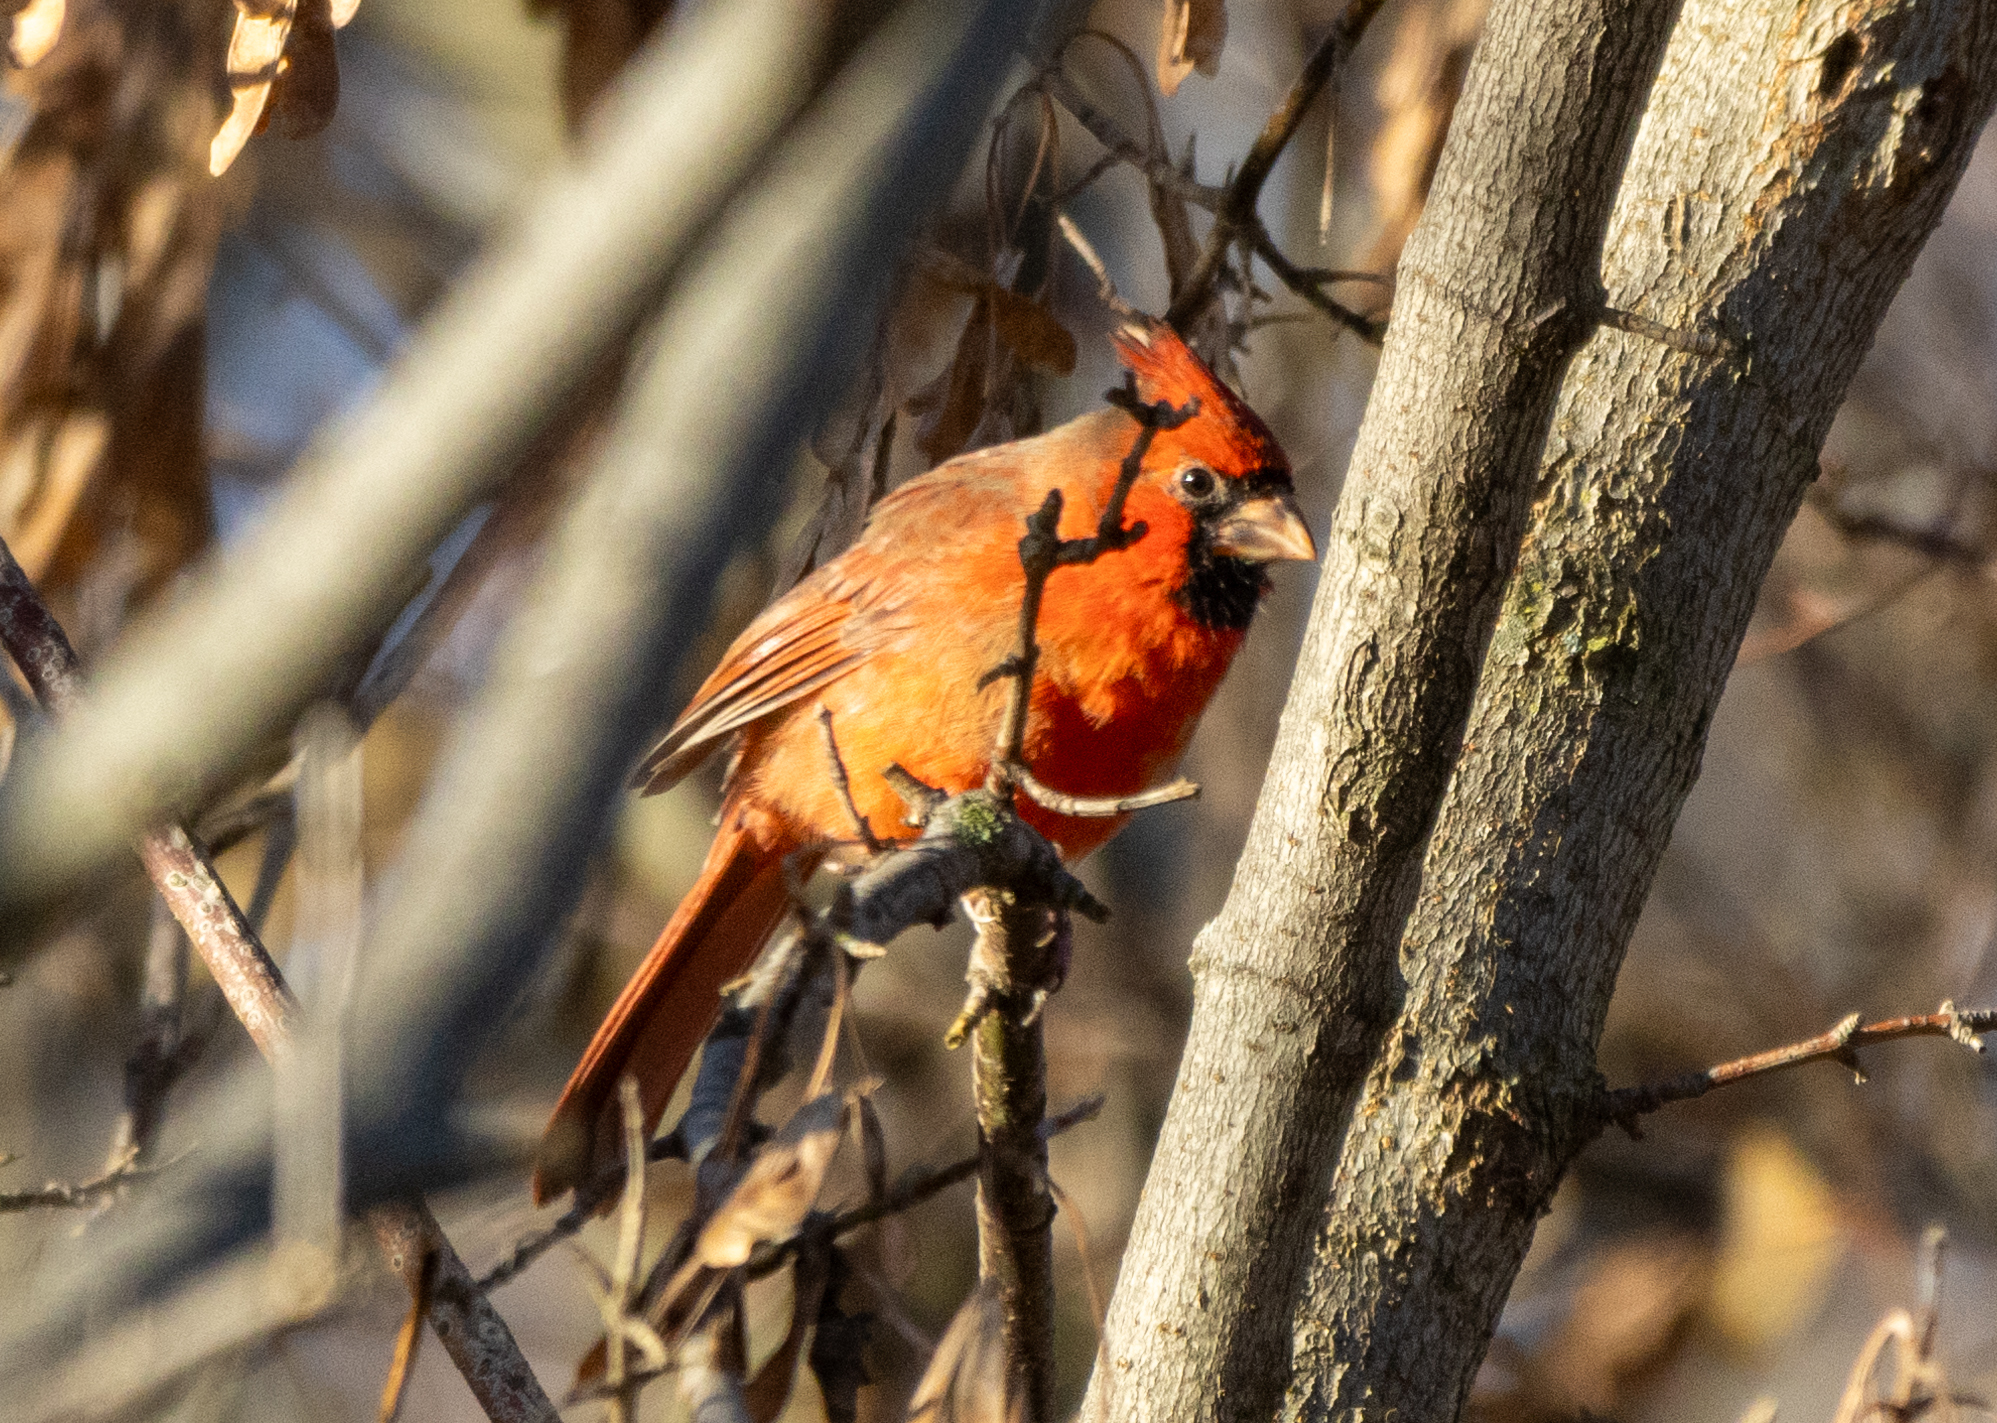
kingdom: Animalia
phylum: Chordata
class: Aves
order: Passeriformes
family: Cardinalidae
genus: Cardinalis
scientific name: Cardinalis cardinalis
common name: Northern cardinal
